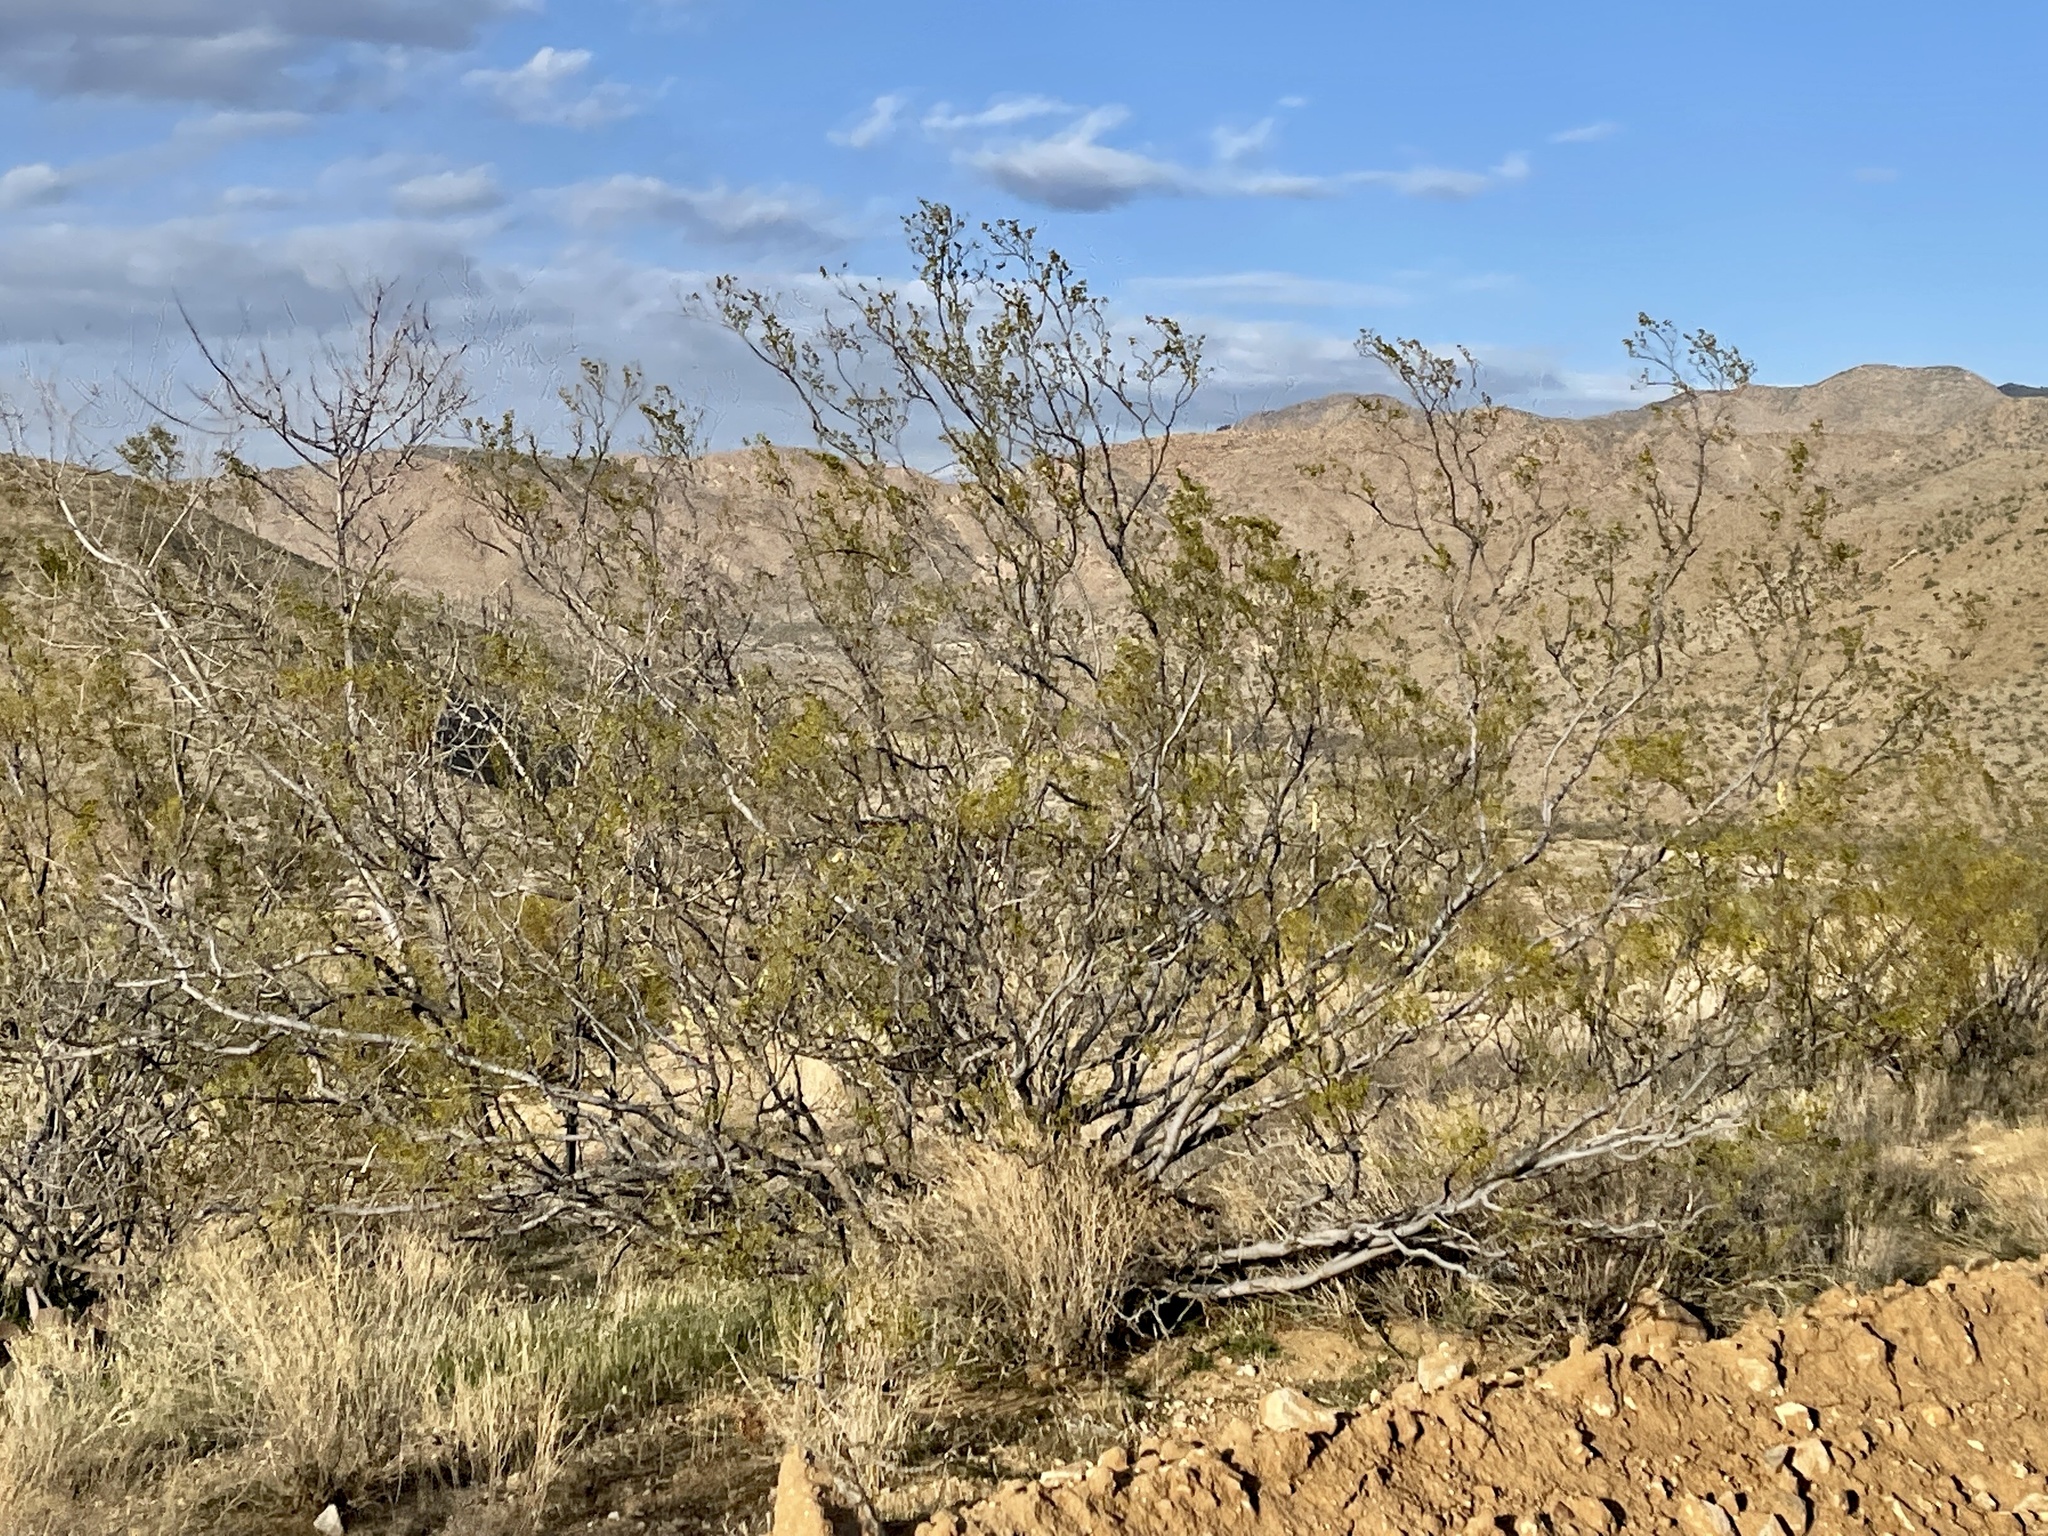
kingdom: Plantae
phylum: Tracheophyta
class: Magnoliopsida
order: Zygophyllales
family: Zygophyllaceae
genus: Larrea
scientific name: Larrea tridentata
